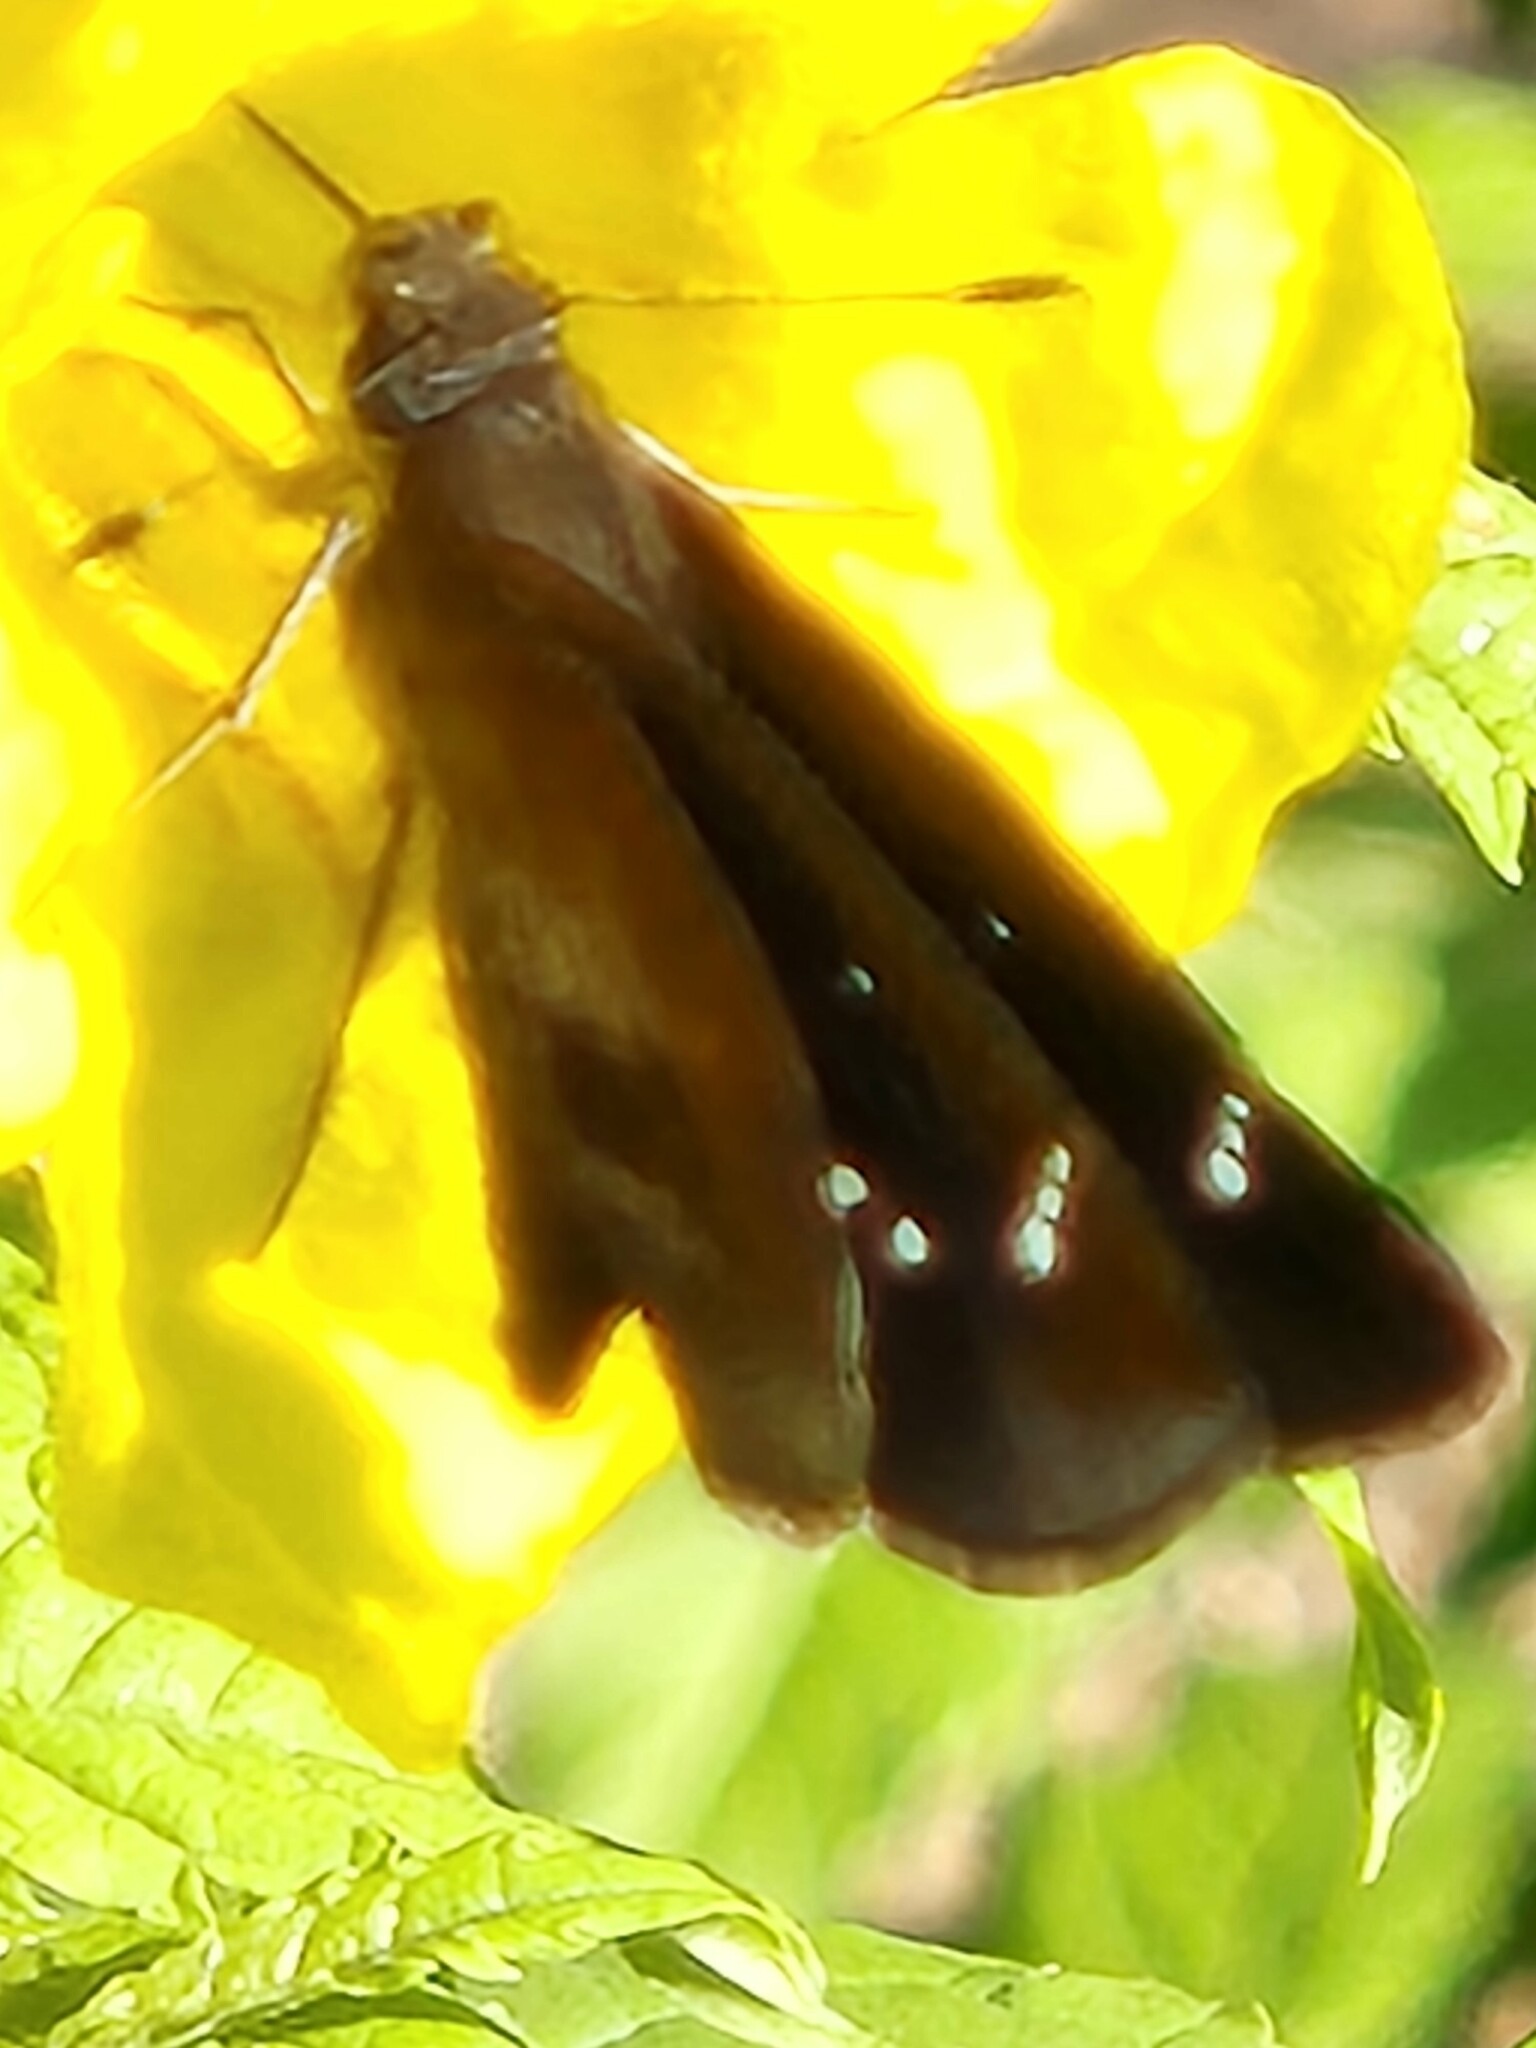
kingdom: Animalia
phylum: Arthropoda
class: Insecta
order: Lepidoptera
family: Hesperiidae
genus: Lerema
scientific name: Lerema accius
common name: Clouded skipper
